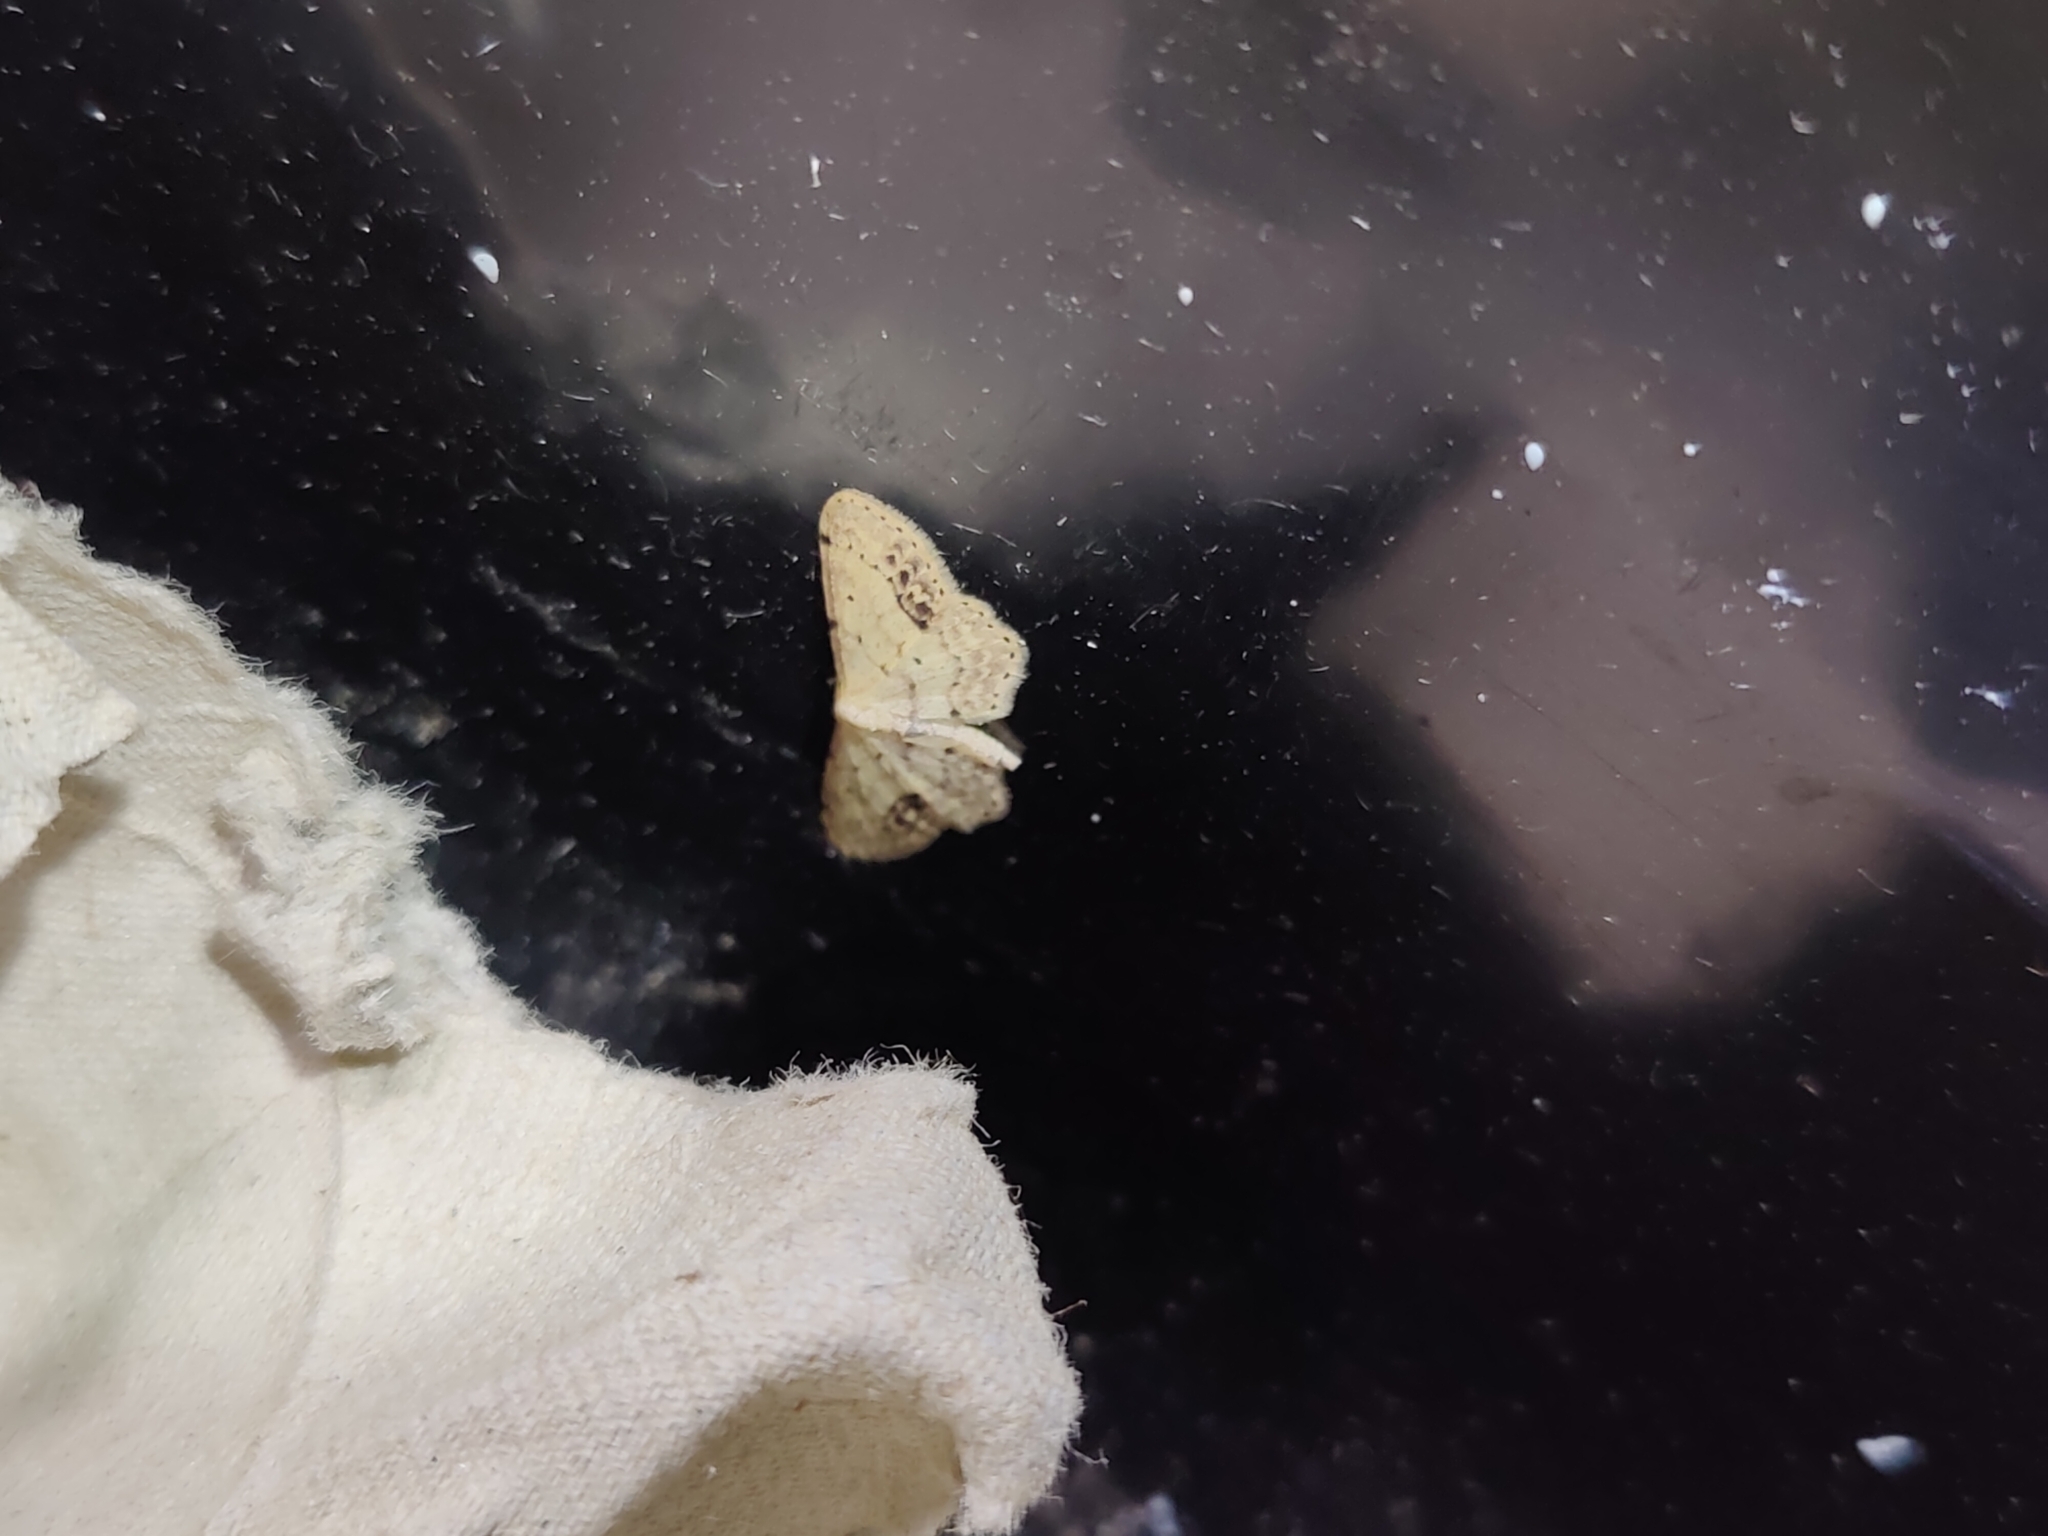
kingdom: Animalia
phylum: Arthropoda
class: Insecta
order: Lepidoptera
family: Geometridae
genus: Idaea
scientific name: Idaea dimidiata
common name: Single-dotted wave
